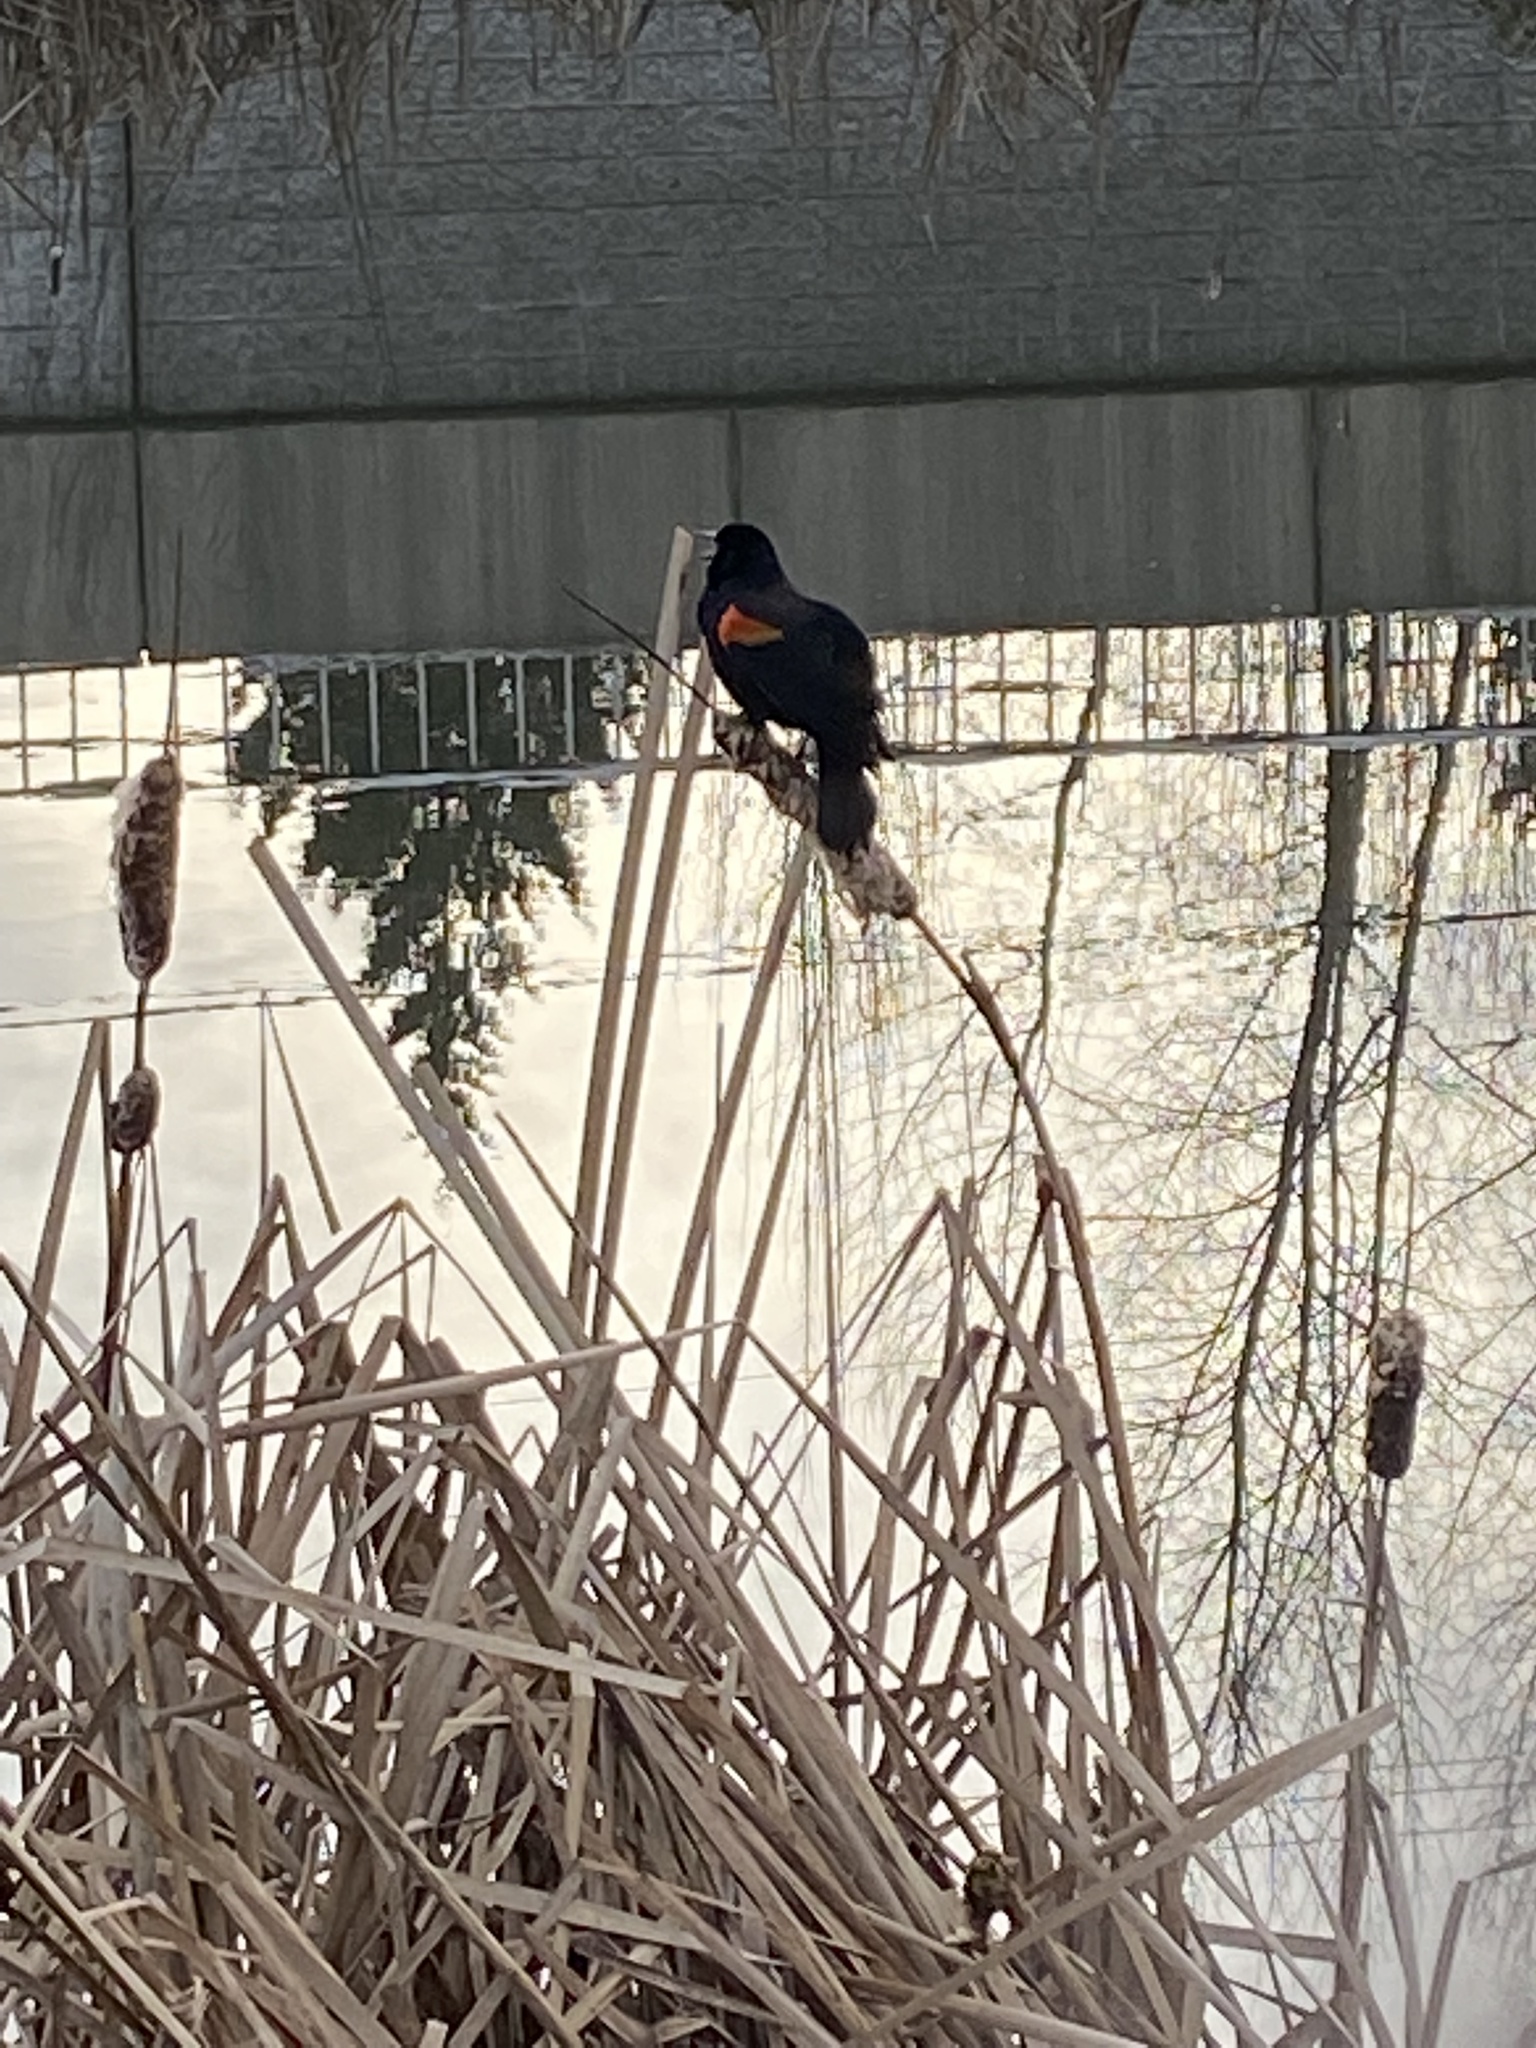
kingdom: Animalia
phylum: Chordata
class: Aves
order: Passeriformes
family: Icteridae
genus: Agelaius
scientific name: Agelaius phoeniceus
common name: Red-winged blackbird
